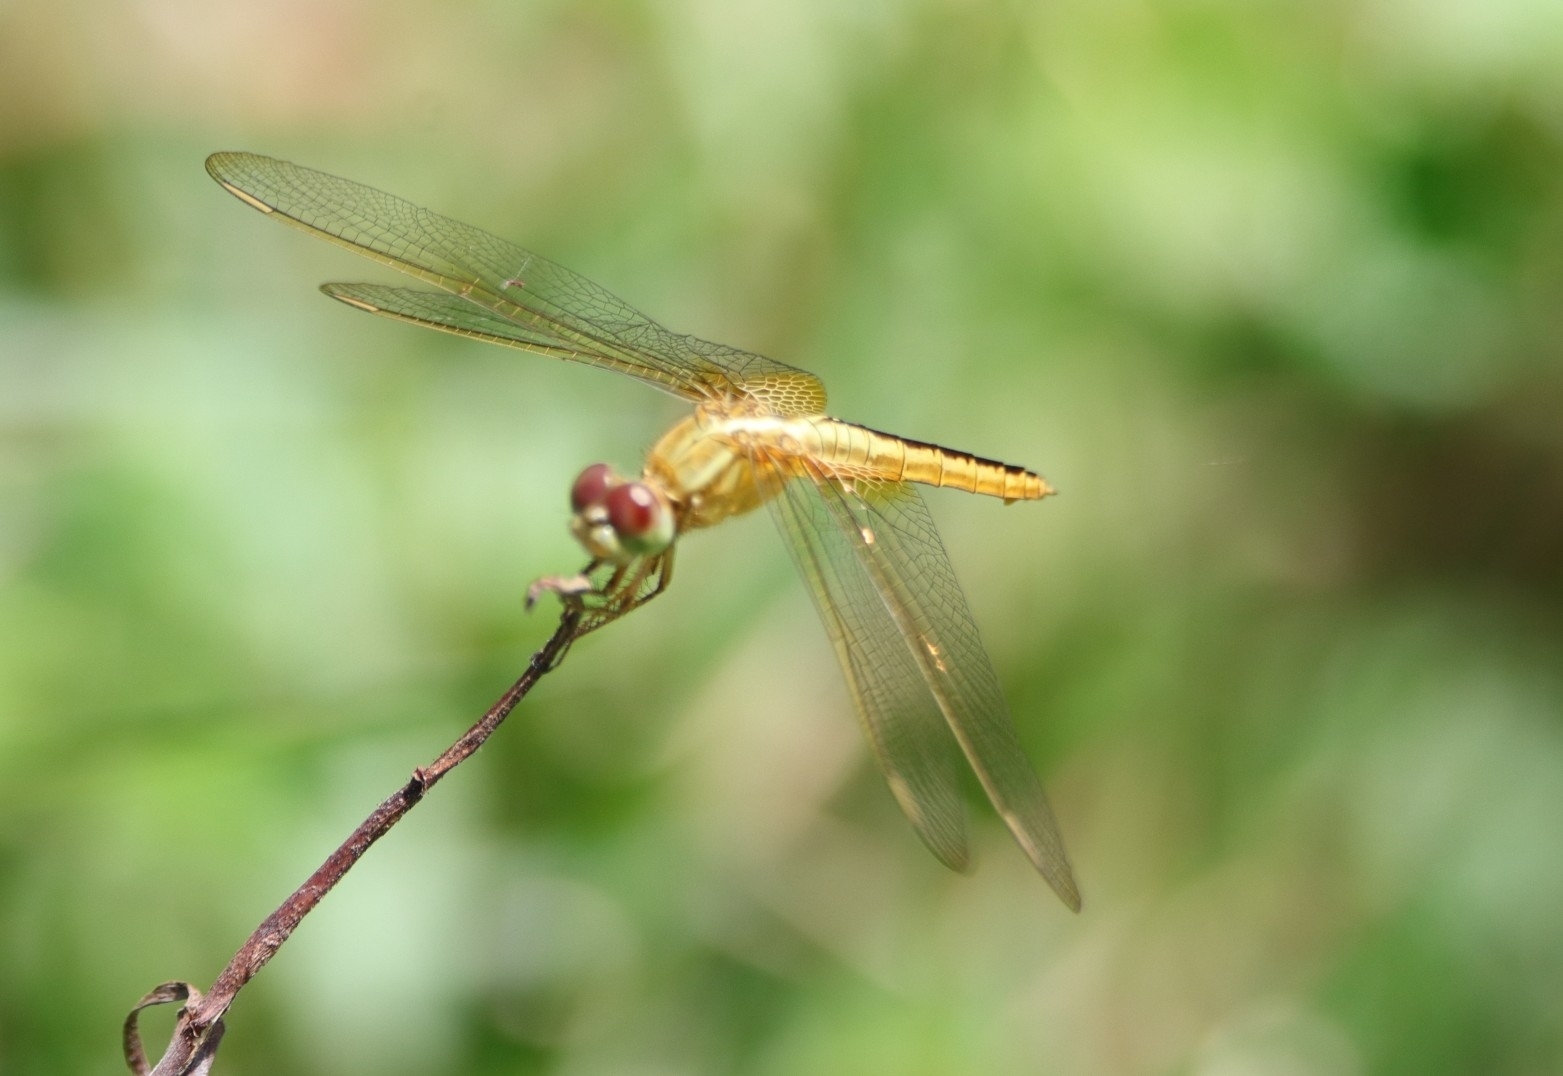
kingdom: Animalia
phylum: Arthropoda
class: Insecta
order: Odonata
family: Libellulidae
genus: Crocothemis
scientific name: Crocothemis servilia
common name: Scarlet skimmer
